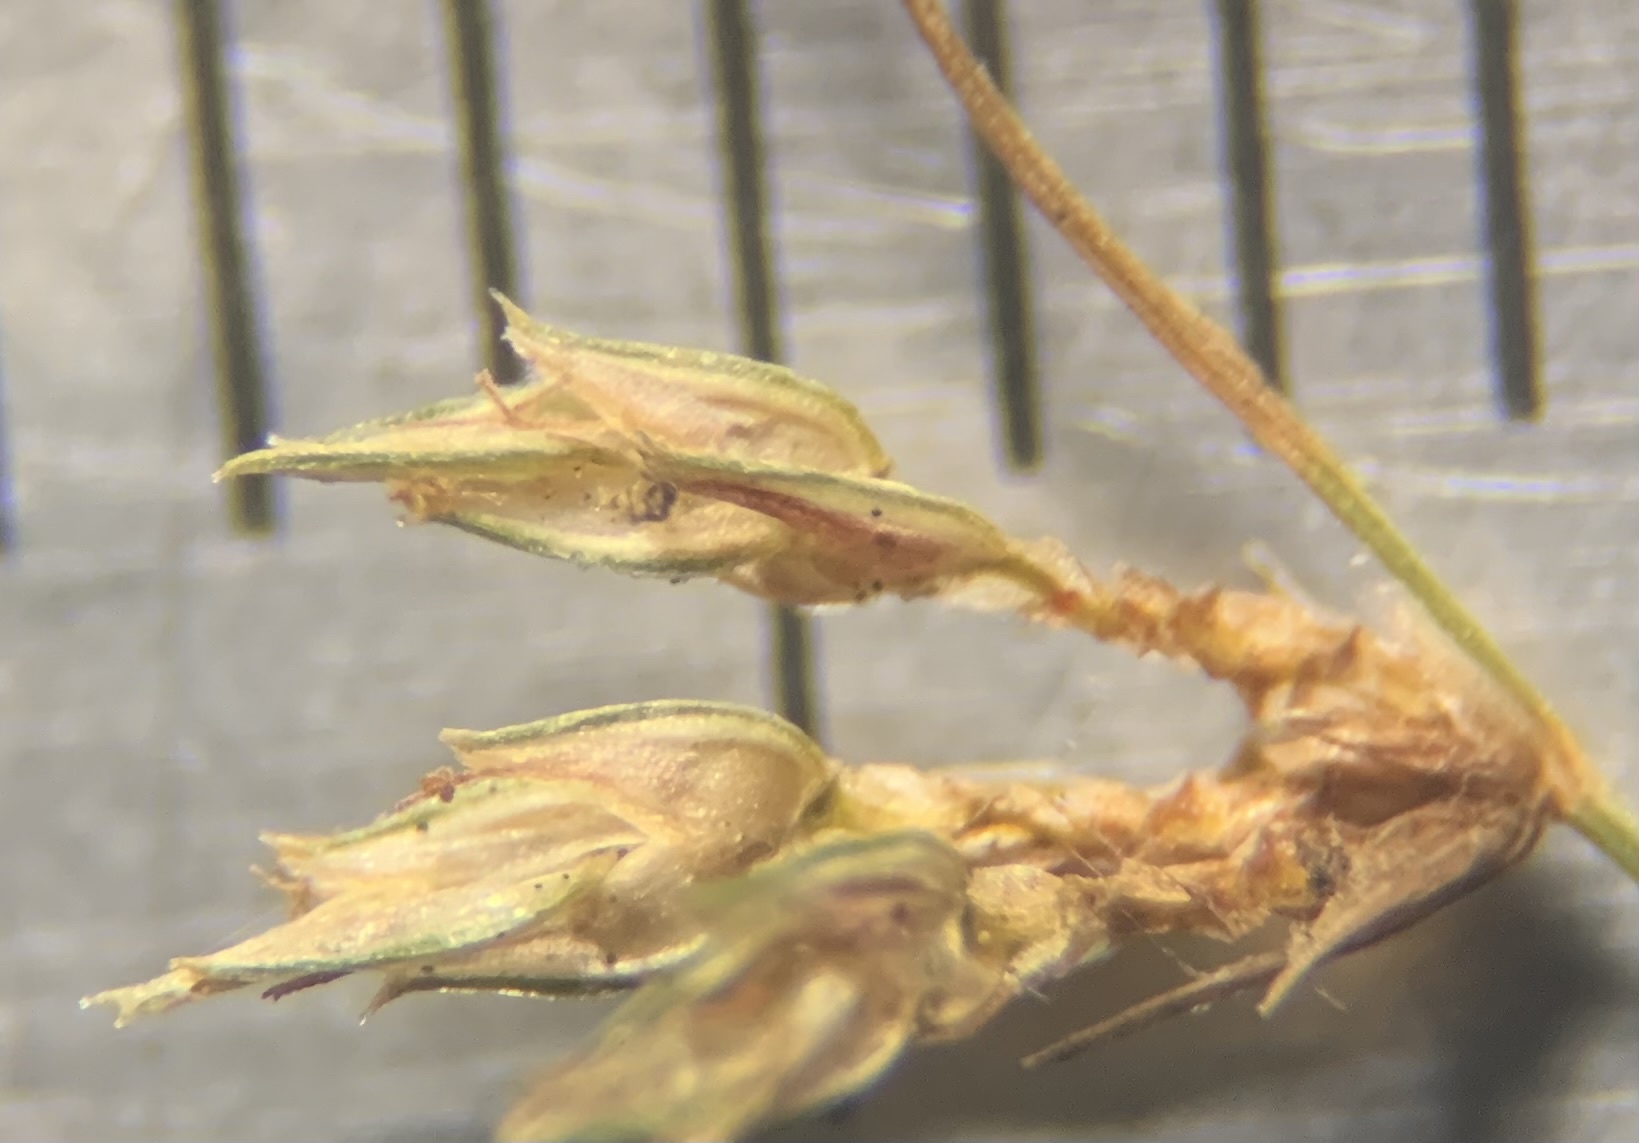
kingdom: Plantae
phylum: Tracheophyta
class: Liliopsida
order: Poales
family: Cyperaceae
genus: Bulbostylis
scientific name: Bulbostylis barbata
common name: Watergrass
